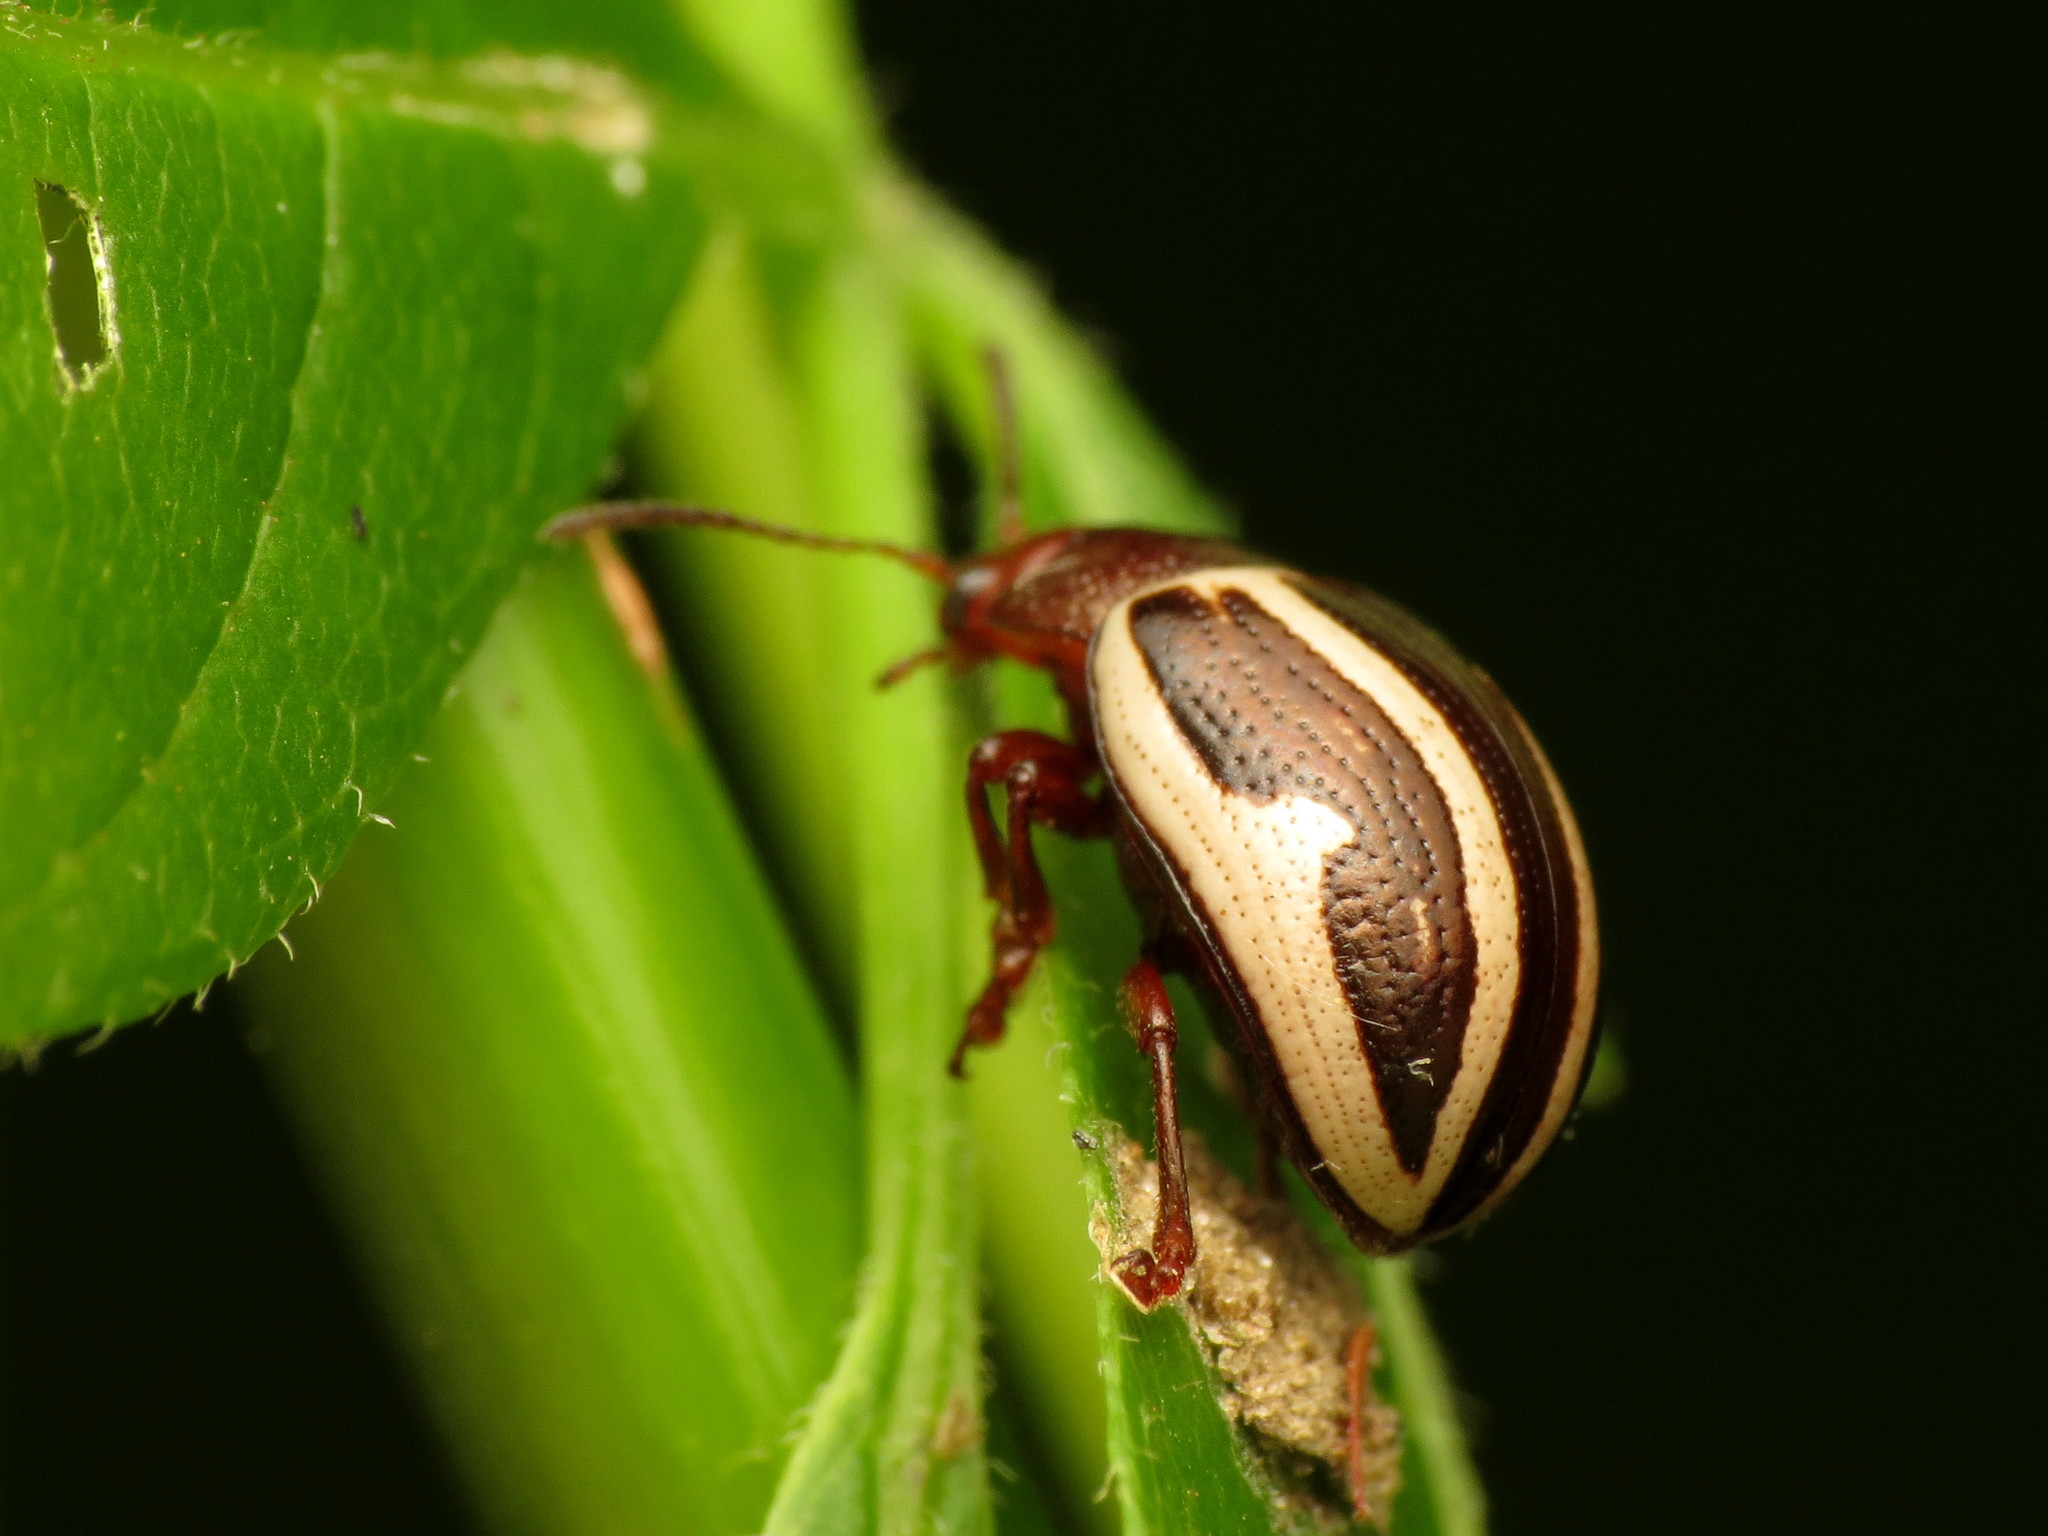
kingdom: Animalia
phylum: Arthropoda
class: Insecta
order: Coleoptera
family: Chrysomelidae
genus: Calligrapha
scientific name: Calligrapha bidenticola
